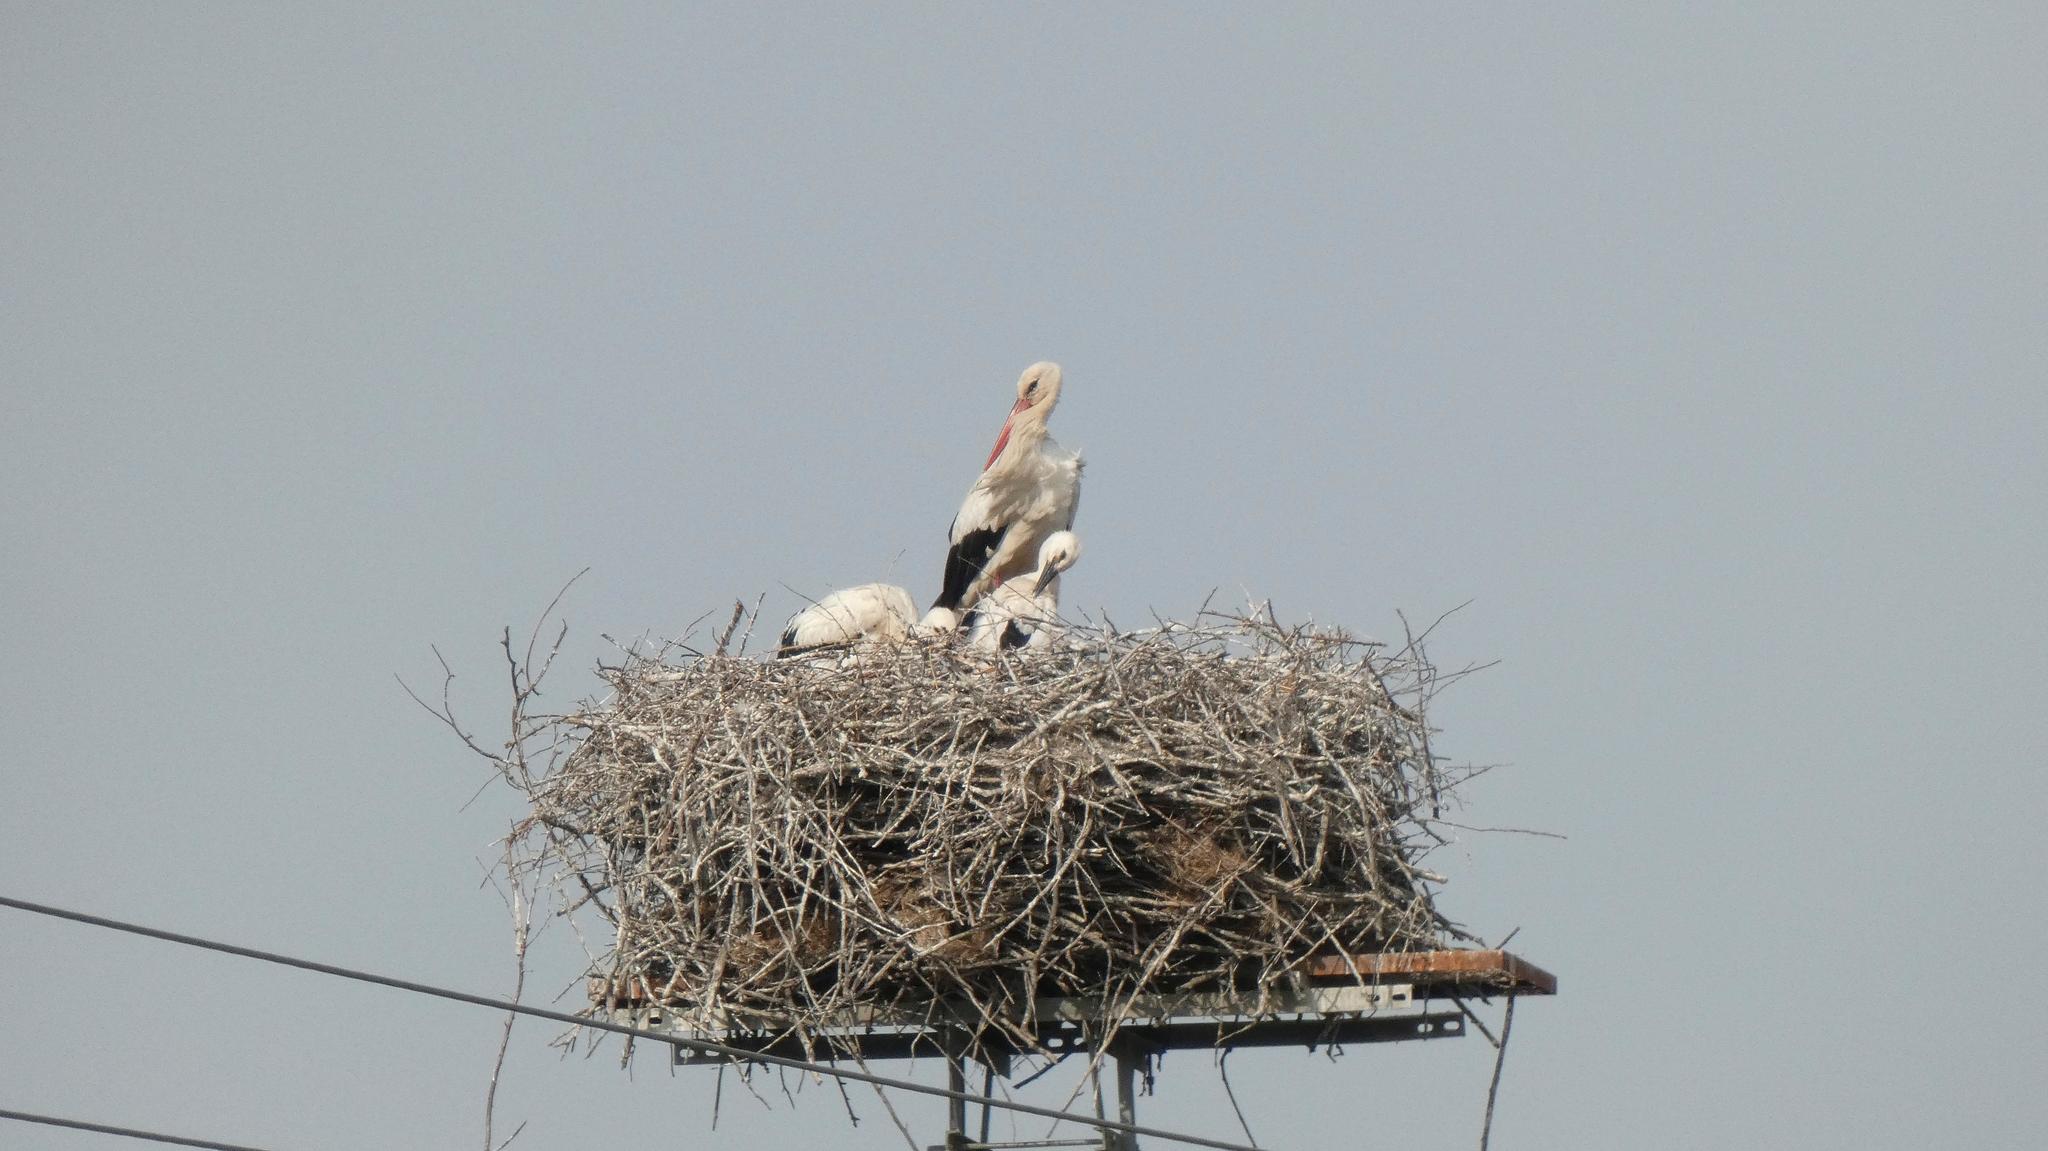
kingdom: Animalia
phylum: Chordata
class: Aves
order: Ciconiiformes
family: Ciconiidae
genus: Ciconia
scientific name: Ciconia ciconia
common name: White stork
